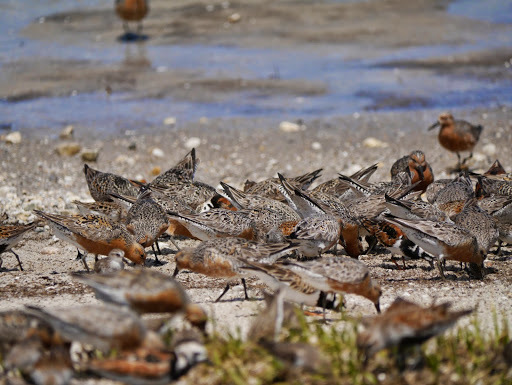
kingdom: Animalia
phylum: Chordata
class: Aves
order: Charadriiformes
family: Scolopacidae
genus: Calidris
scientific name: Calidris canutus
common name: Red knot
